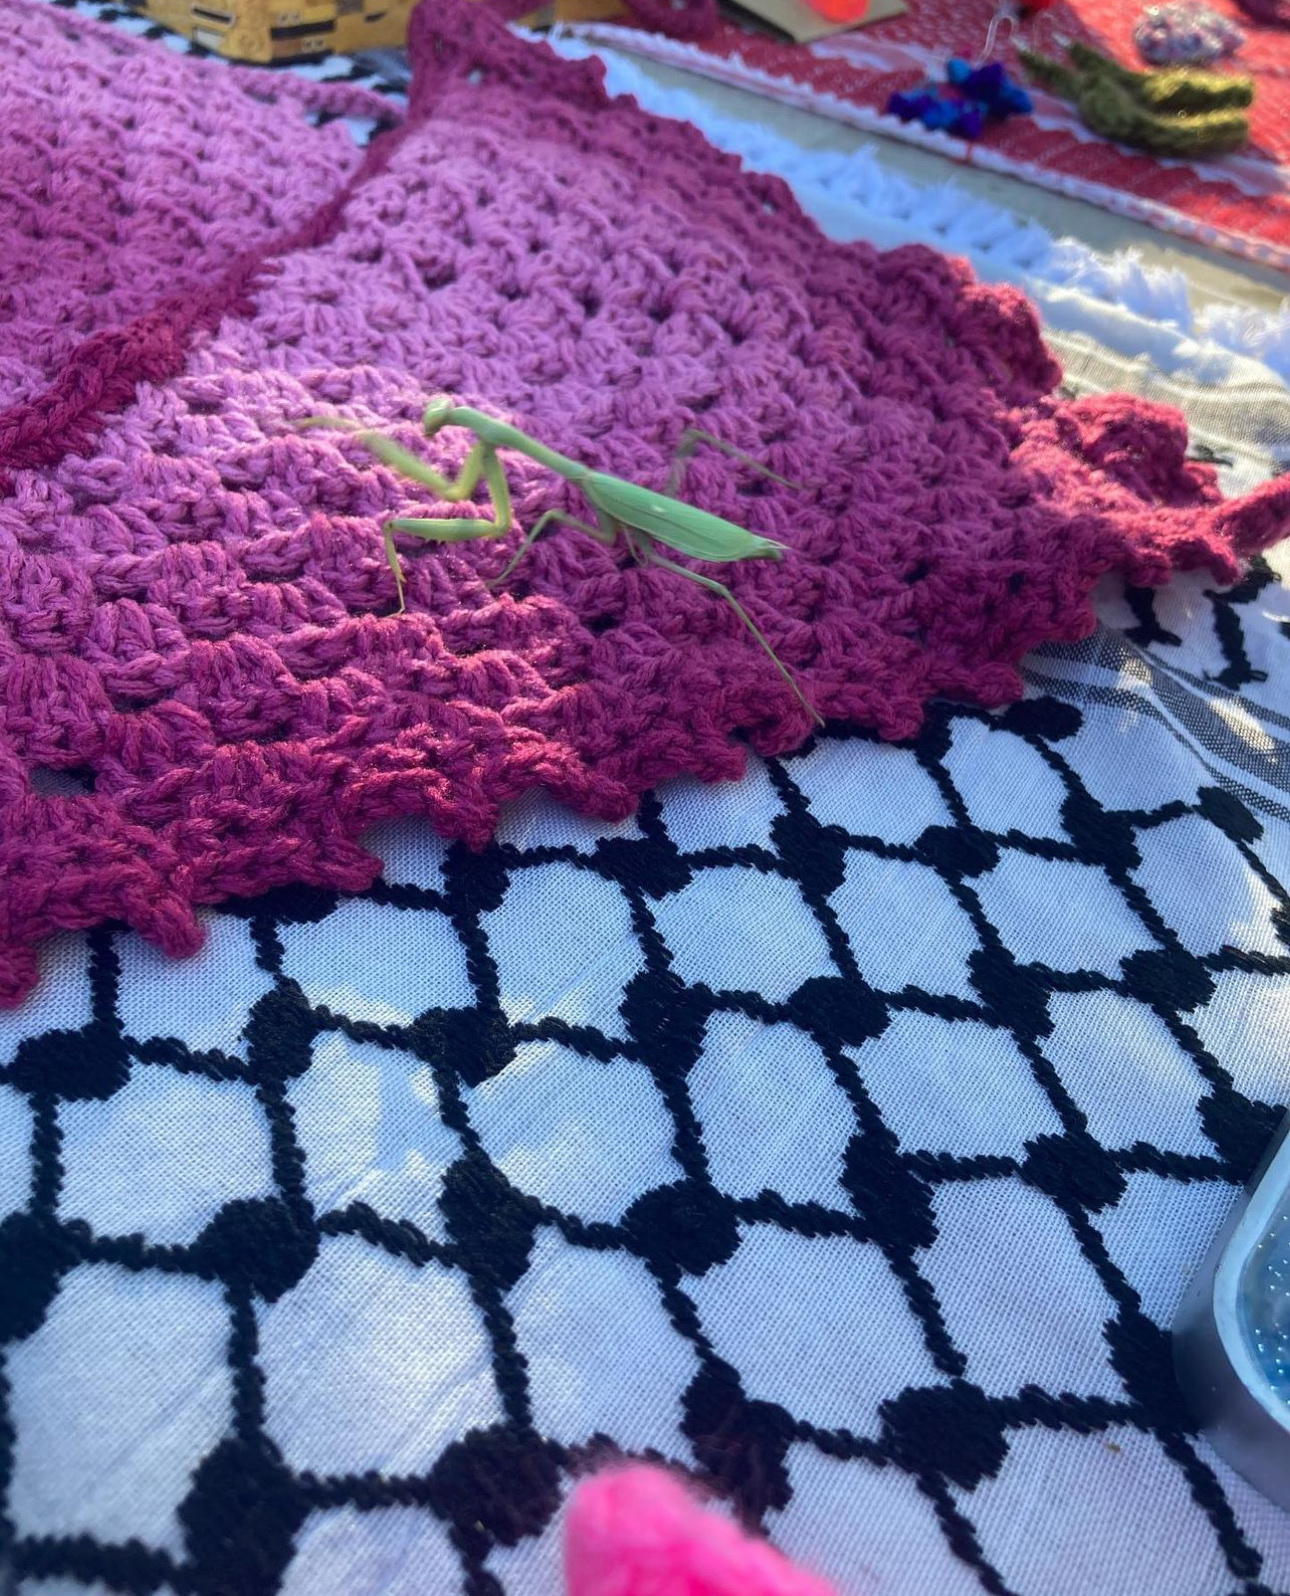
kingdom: Animalia
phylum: Arthropoda
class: Insecta
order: Mantodea
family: Mantidae
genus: Stagmomantis
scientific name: Stagmomantis limbata
